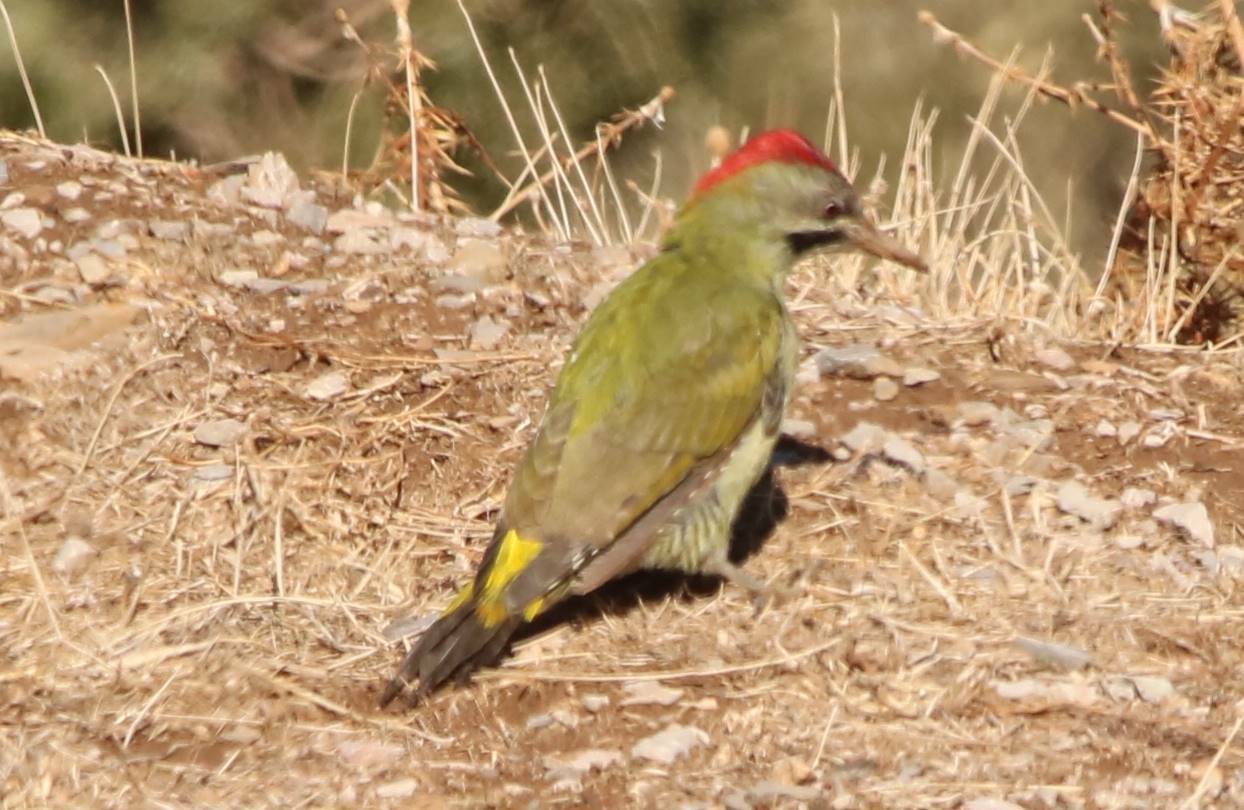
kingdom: Animalia
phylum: Chordata
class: Aves
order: Piciformes
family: Picidae
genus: Picus
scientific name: Picus vaillantii
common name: Levaillant's woodpecker
